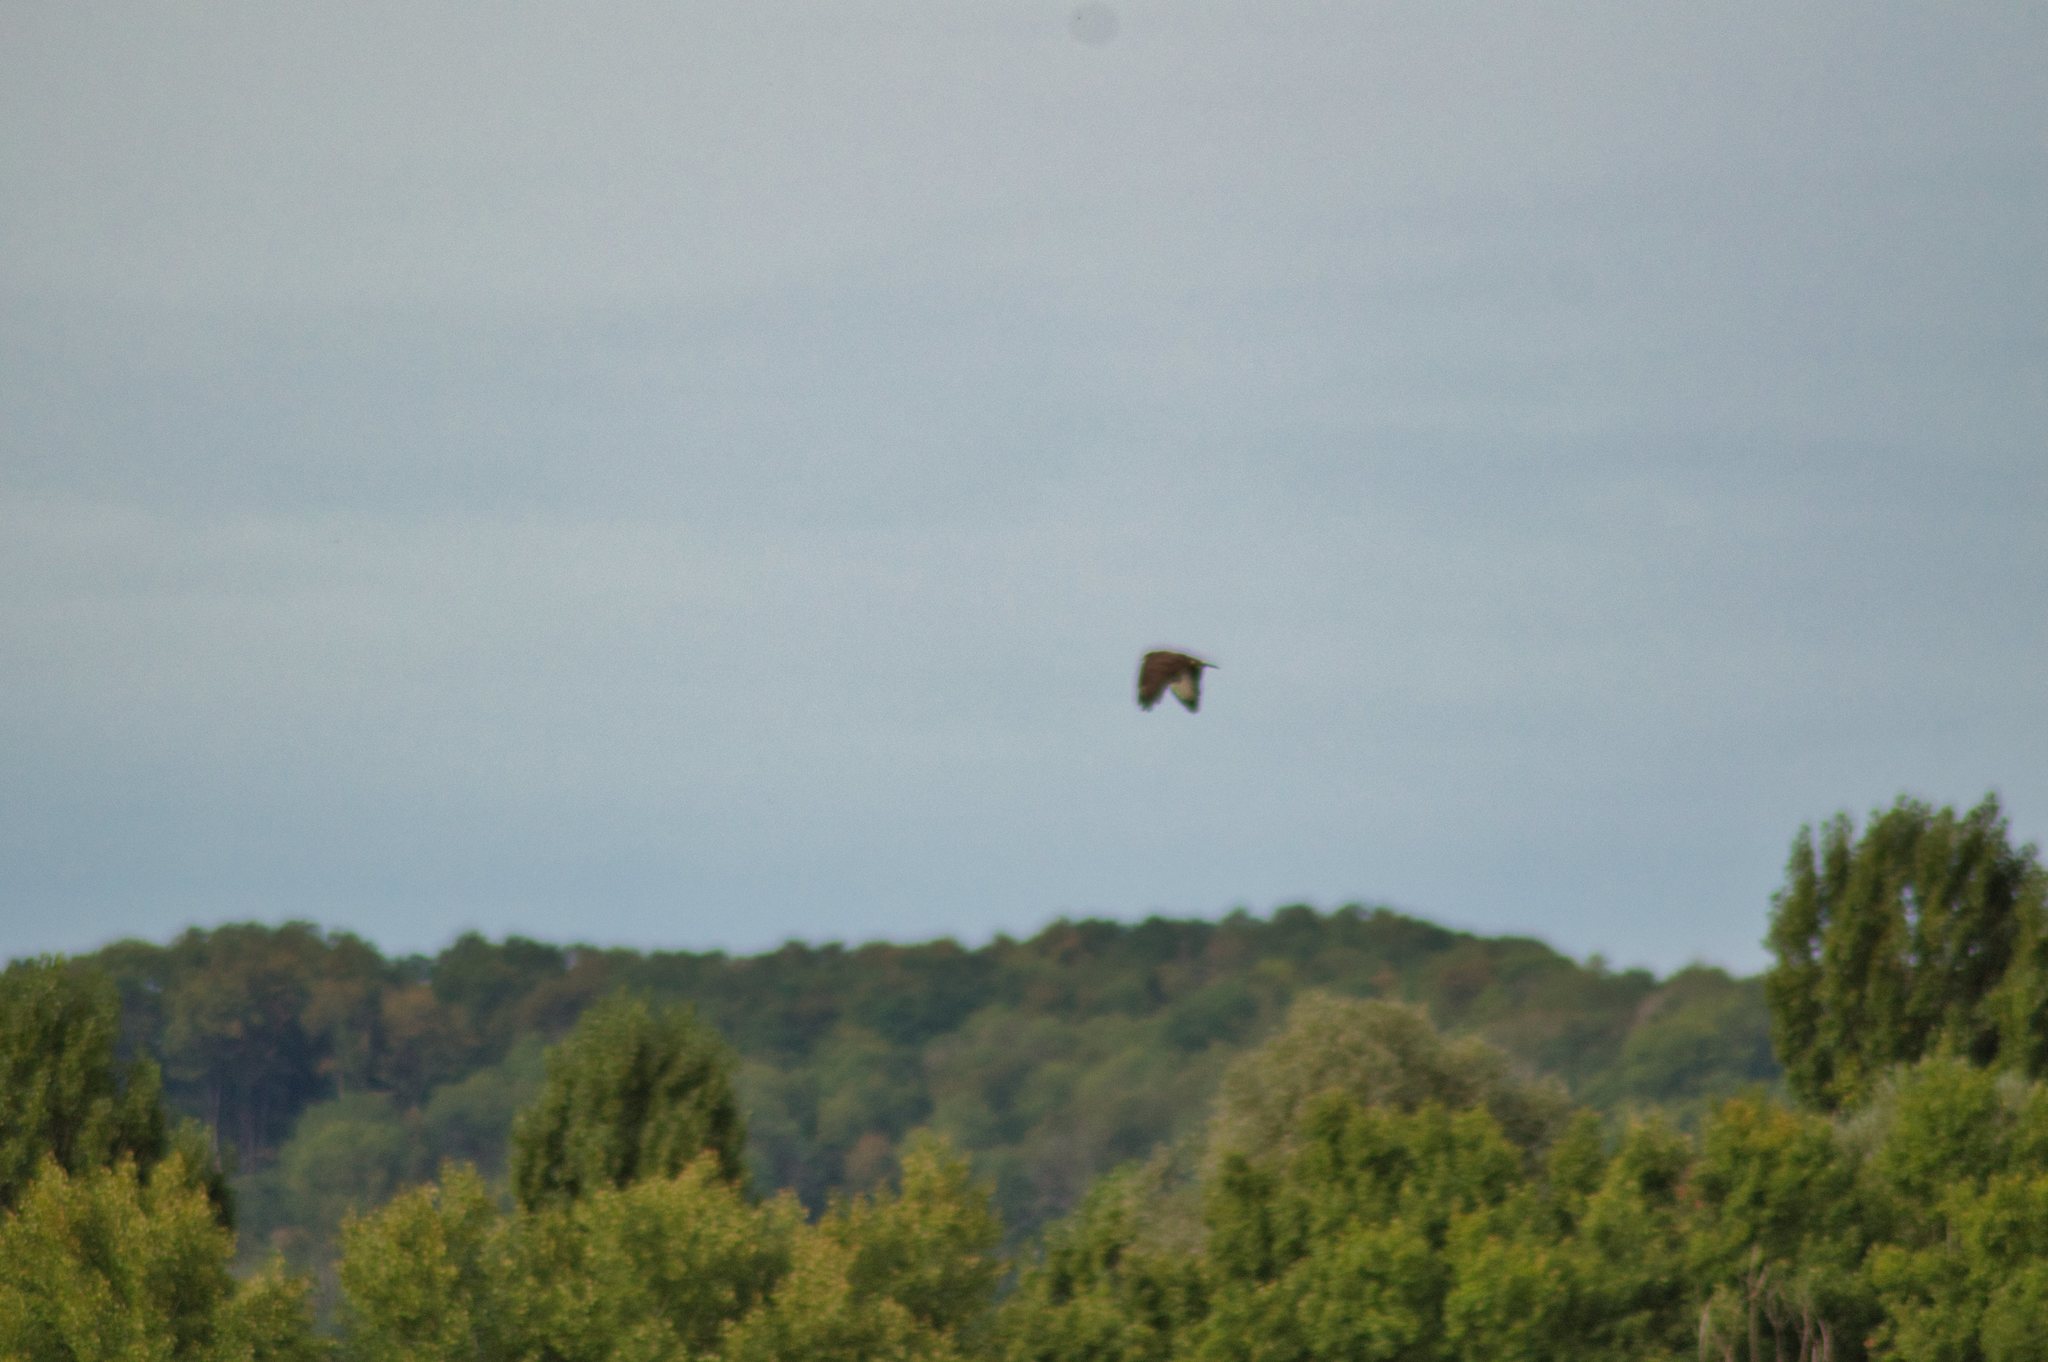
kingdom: Animalia
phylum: Chordata
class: Aves
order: Accipitriformes
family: Accipitridae
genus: Buteo
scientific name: Buteo buteo
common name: Common buzzard
